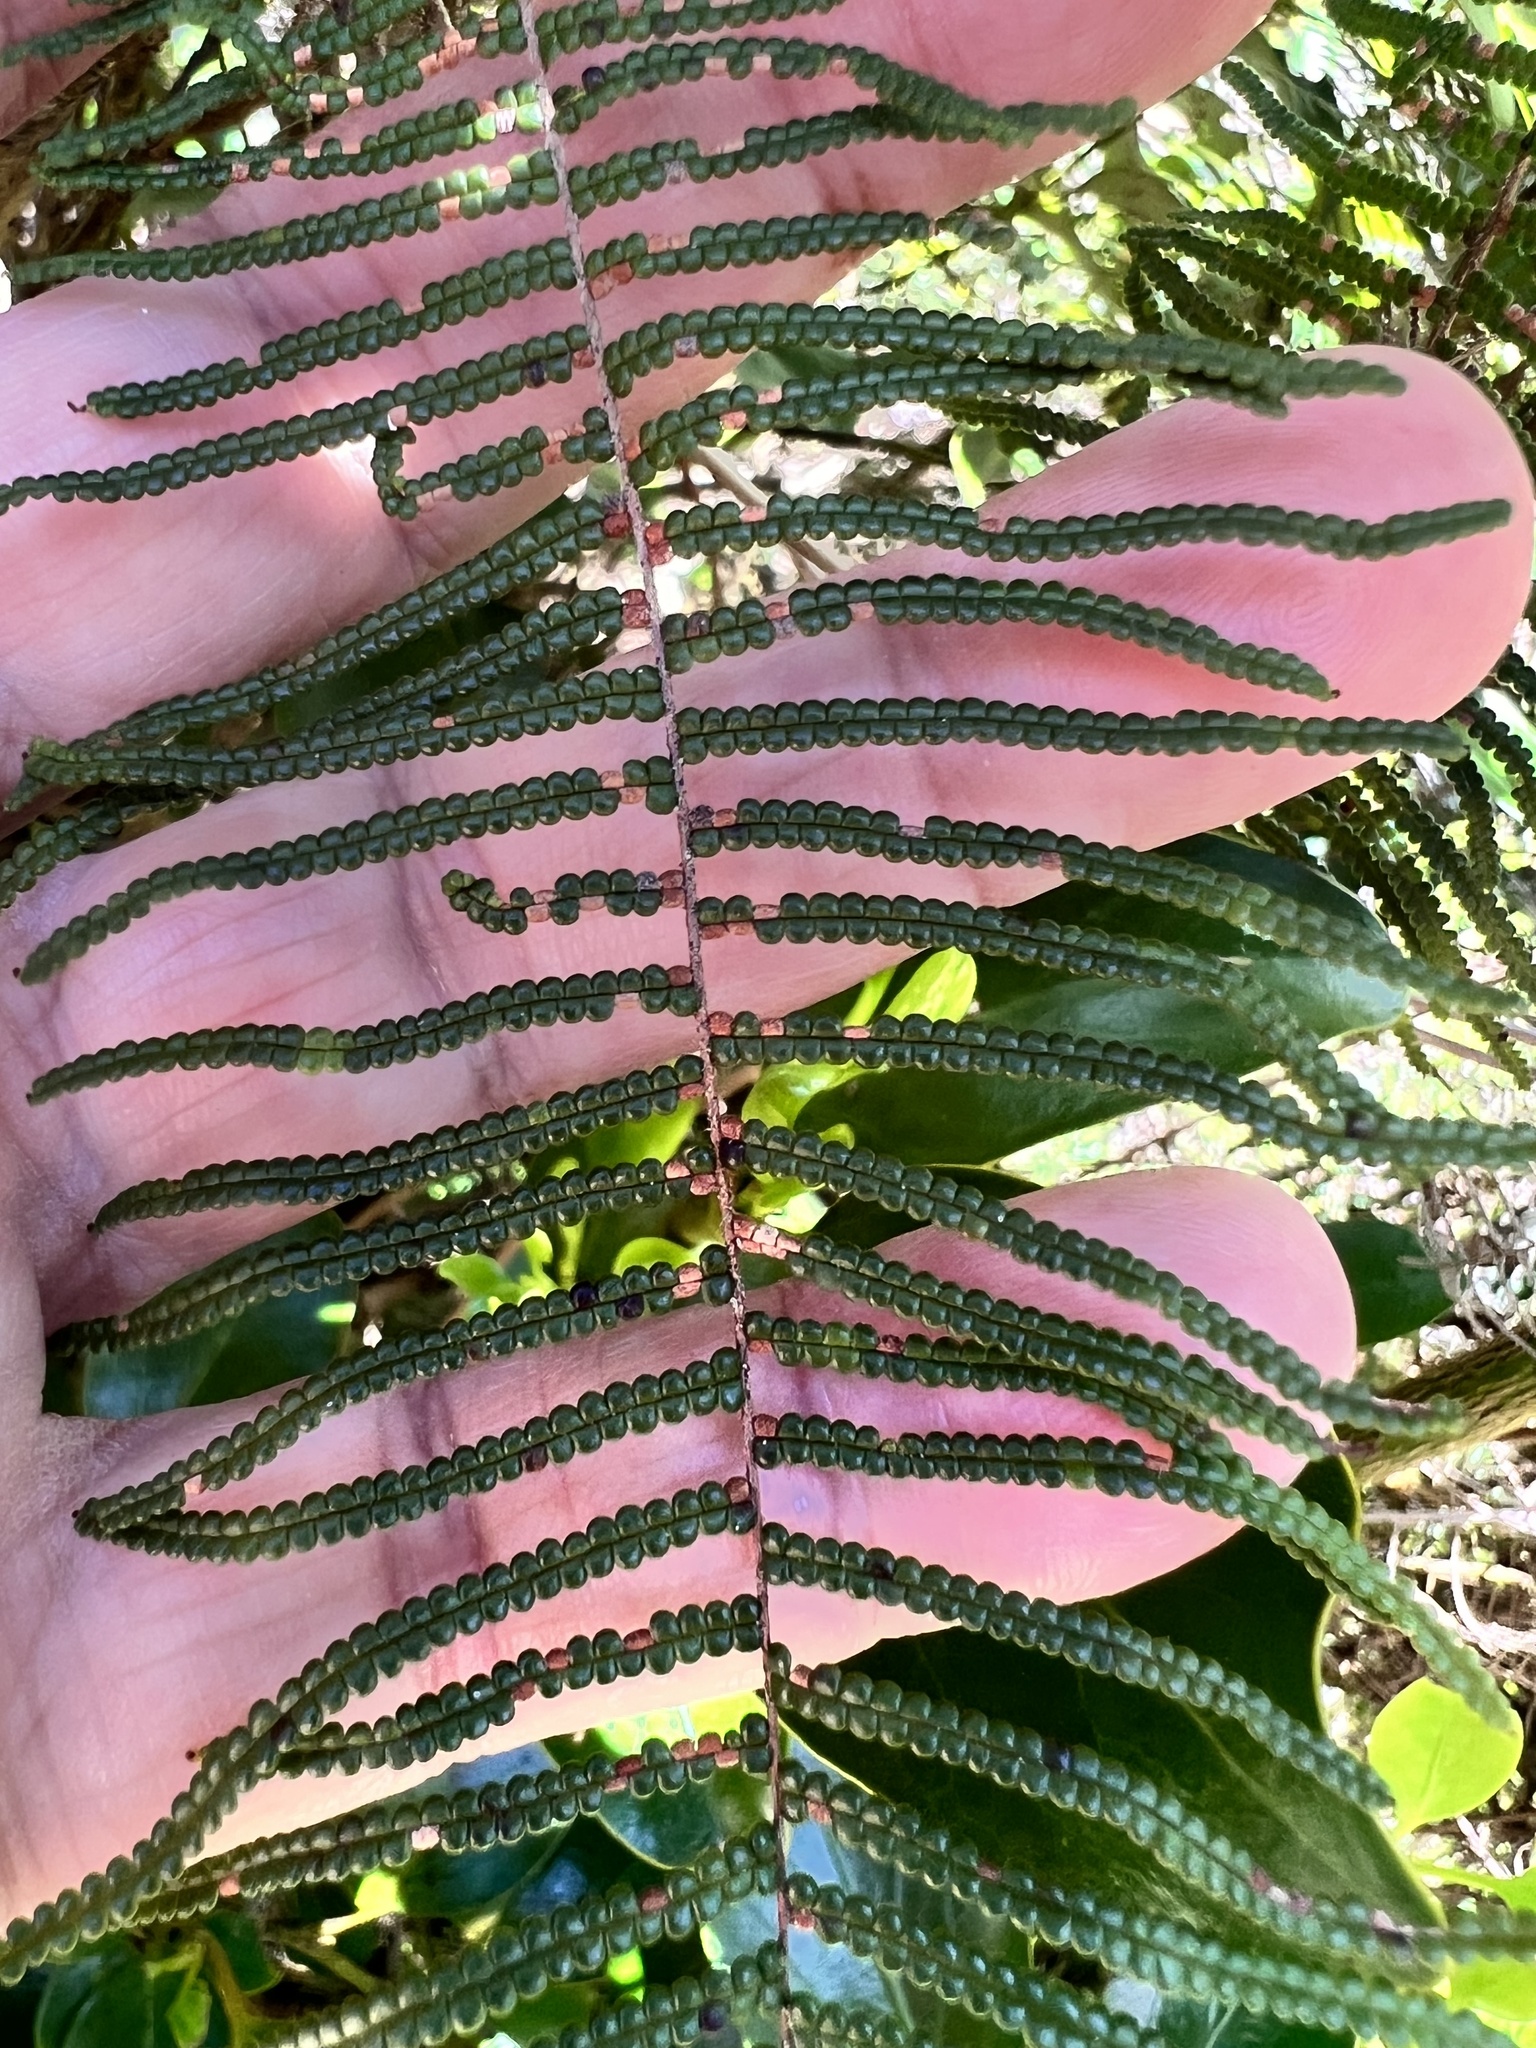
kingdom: Plantae
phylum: Tracheophyta
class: Polypodiopsida
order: Gleicheniales
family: Gleicheniaceae
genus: Gleichenia
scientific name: Gleichenia dicarpa
